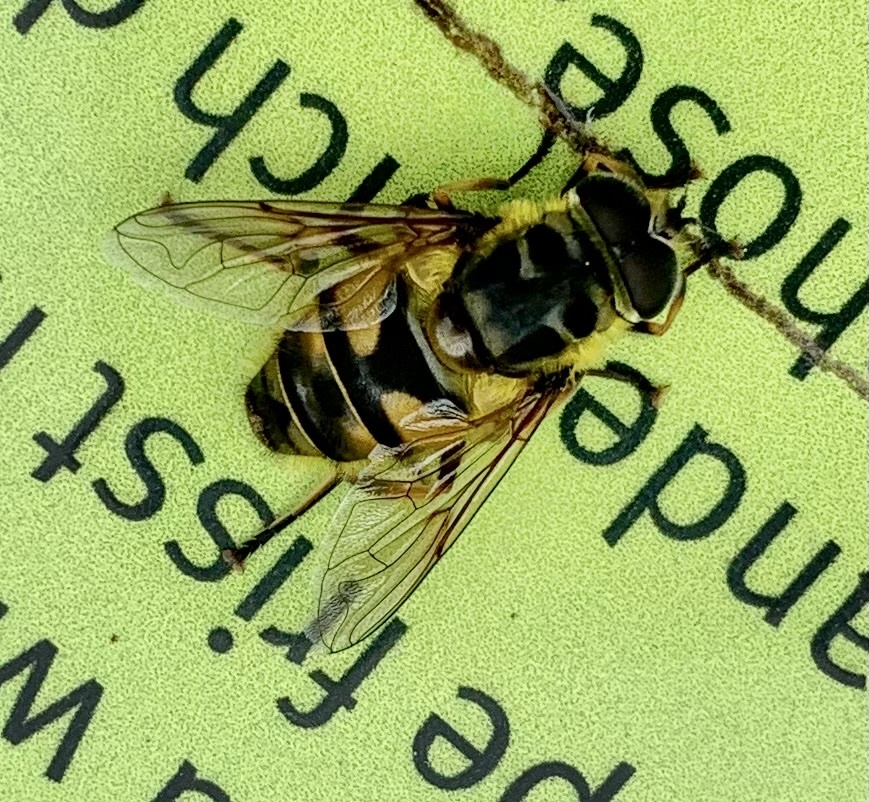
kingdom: Animalia
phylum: Arthropoda
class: Insecta
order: Diptera
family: Syrphidae
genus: Myathropa
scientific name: Myathropa florea
